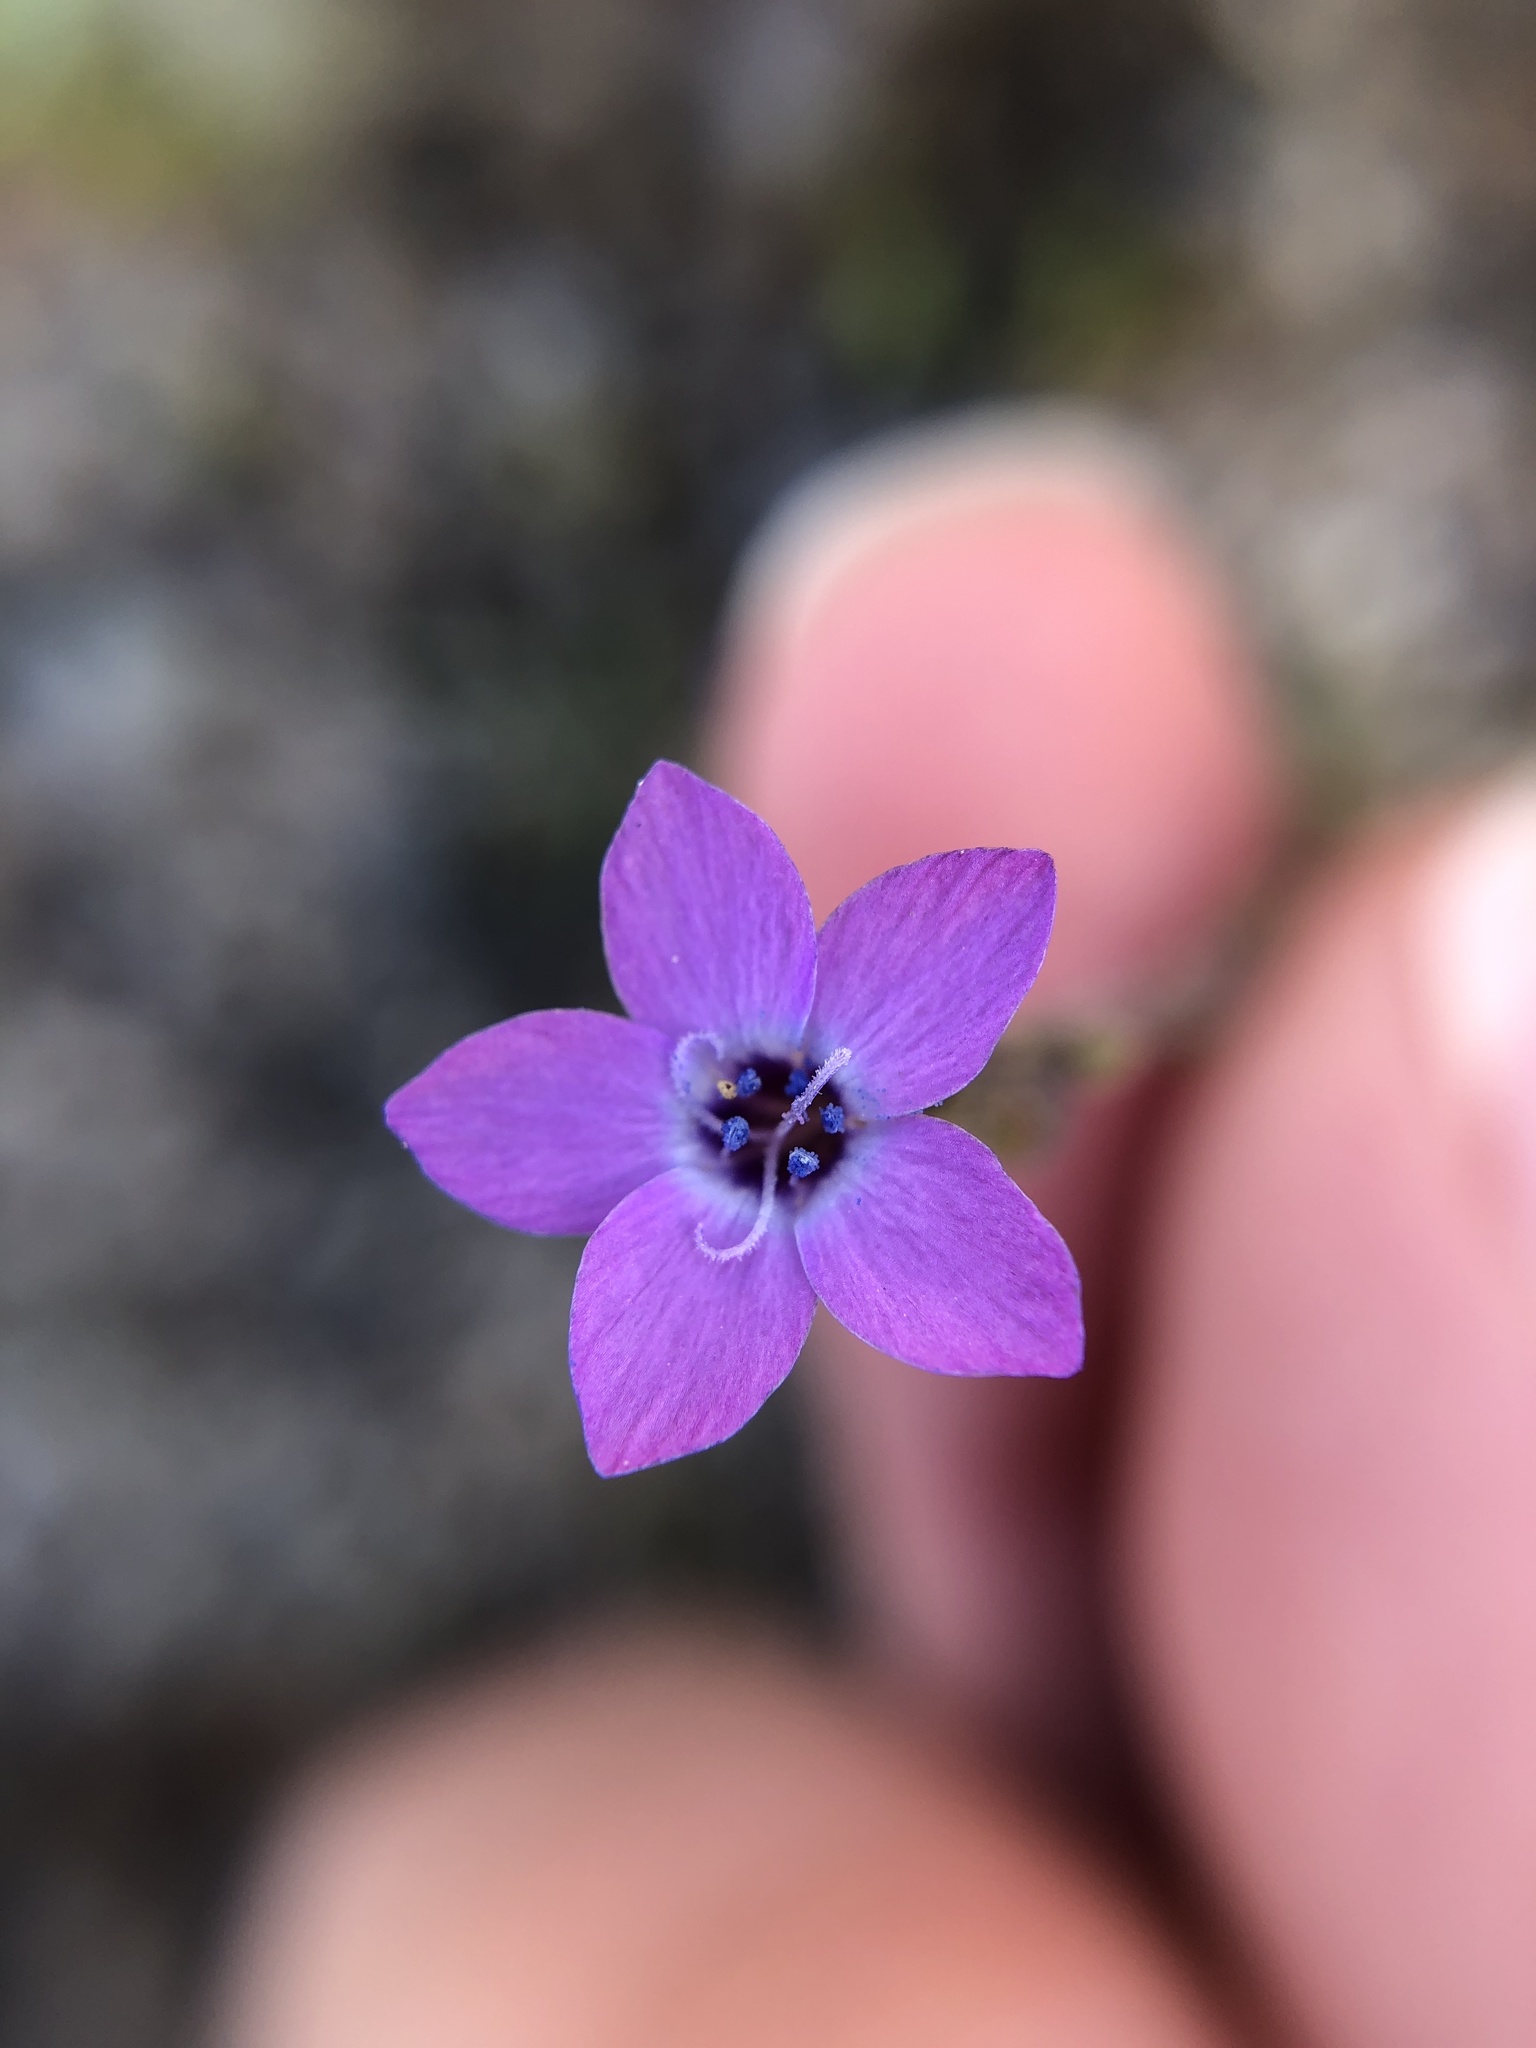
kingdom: Plantae
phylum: Tracheophyta
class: Magnoliopsida
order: Ericales
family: Polemoniaceae
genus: Gilia
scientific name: Gilia tenuiflora
